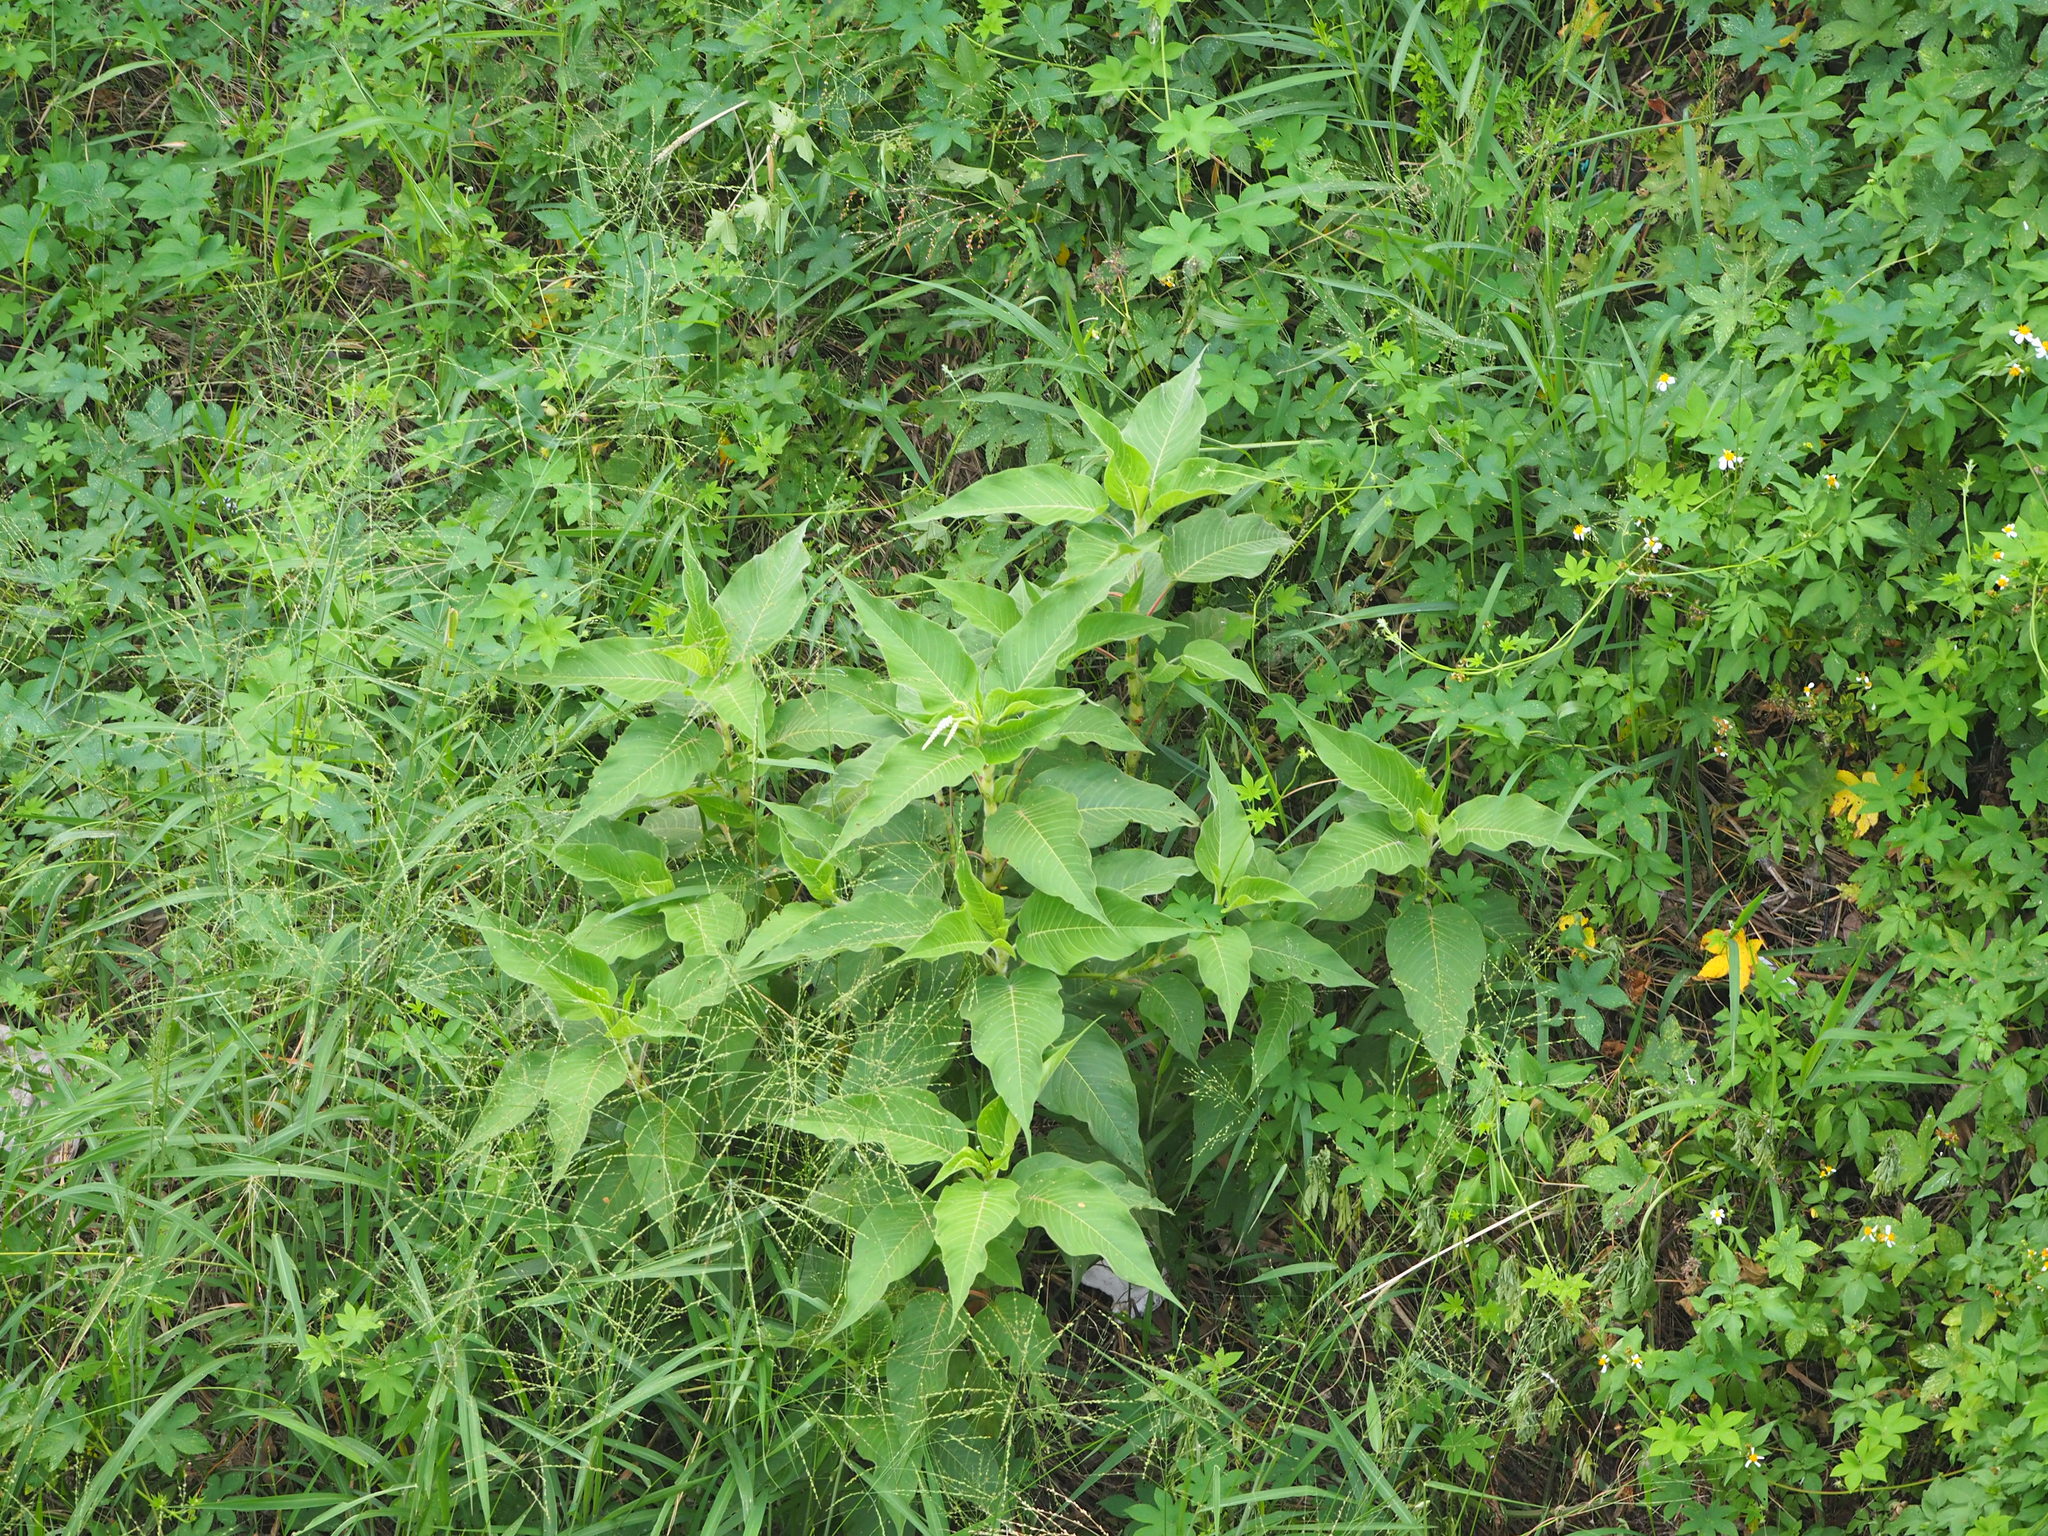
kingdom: Plantae
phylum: Tracheophyta
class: Magnoliopsida
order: Caryophyllales
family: Polygonaceae
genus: Persicaria
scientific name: Persicaria orientalis
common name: Kiss-me-over-the-garden-gate
